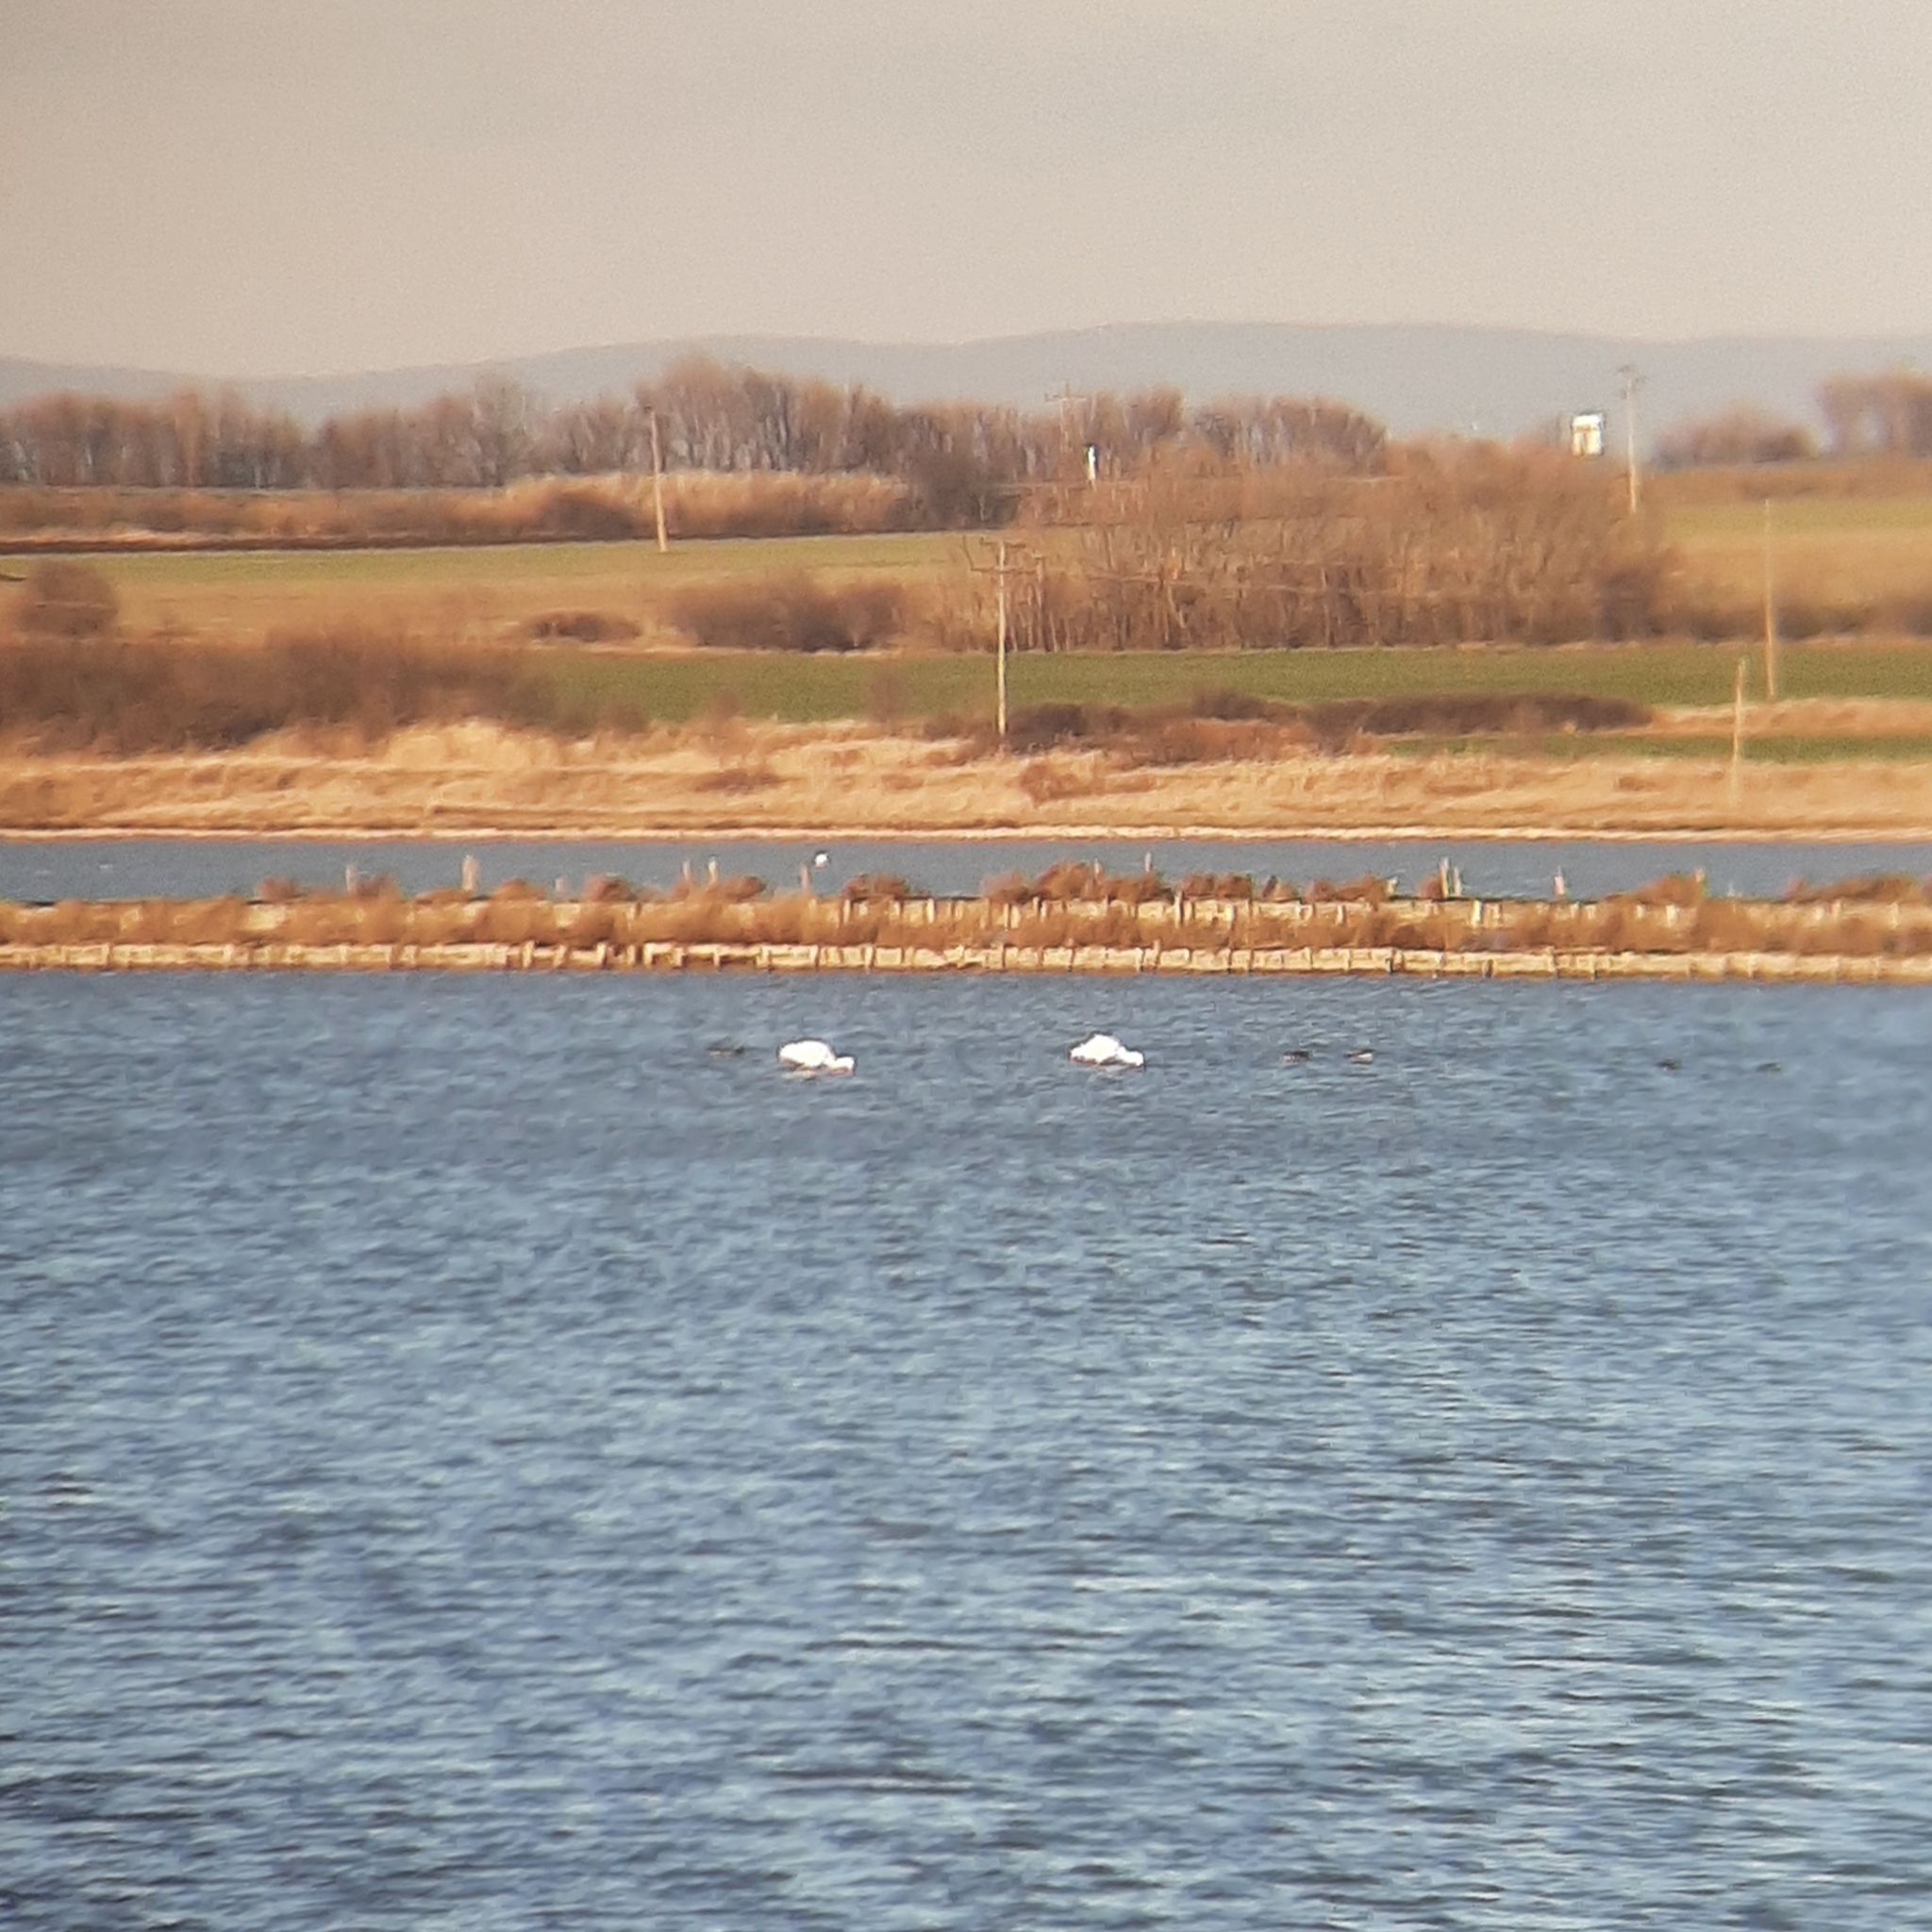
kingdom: Animalia
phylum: Chordata
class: Aves
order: Pelecaniformes
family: Threskiornithidae
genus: Platalea
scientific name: Platalea leucorodia
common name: Eurasian spoonbill
